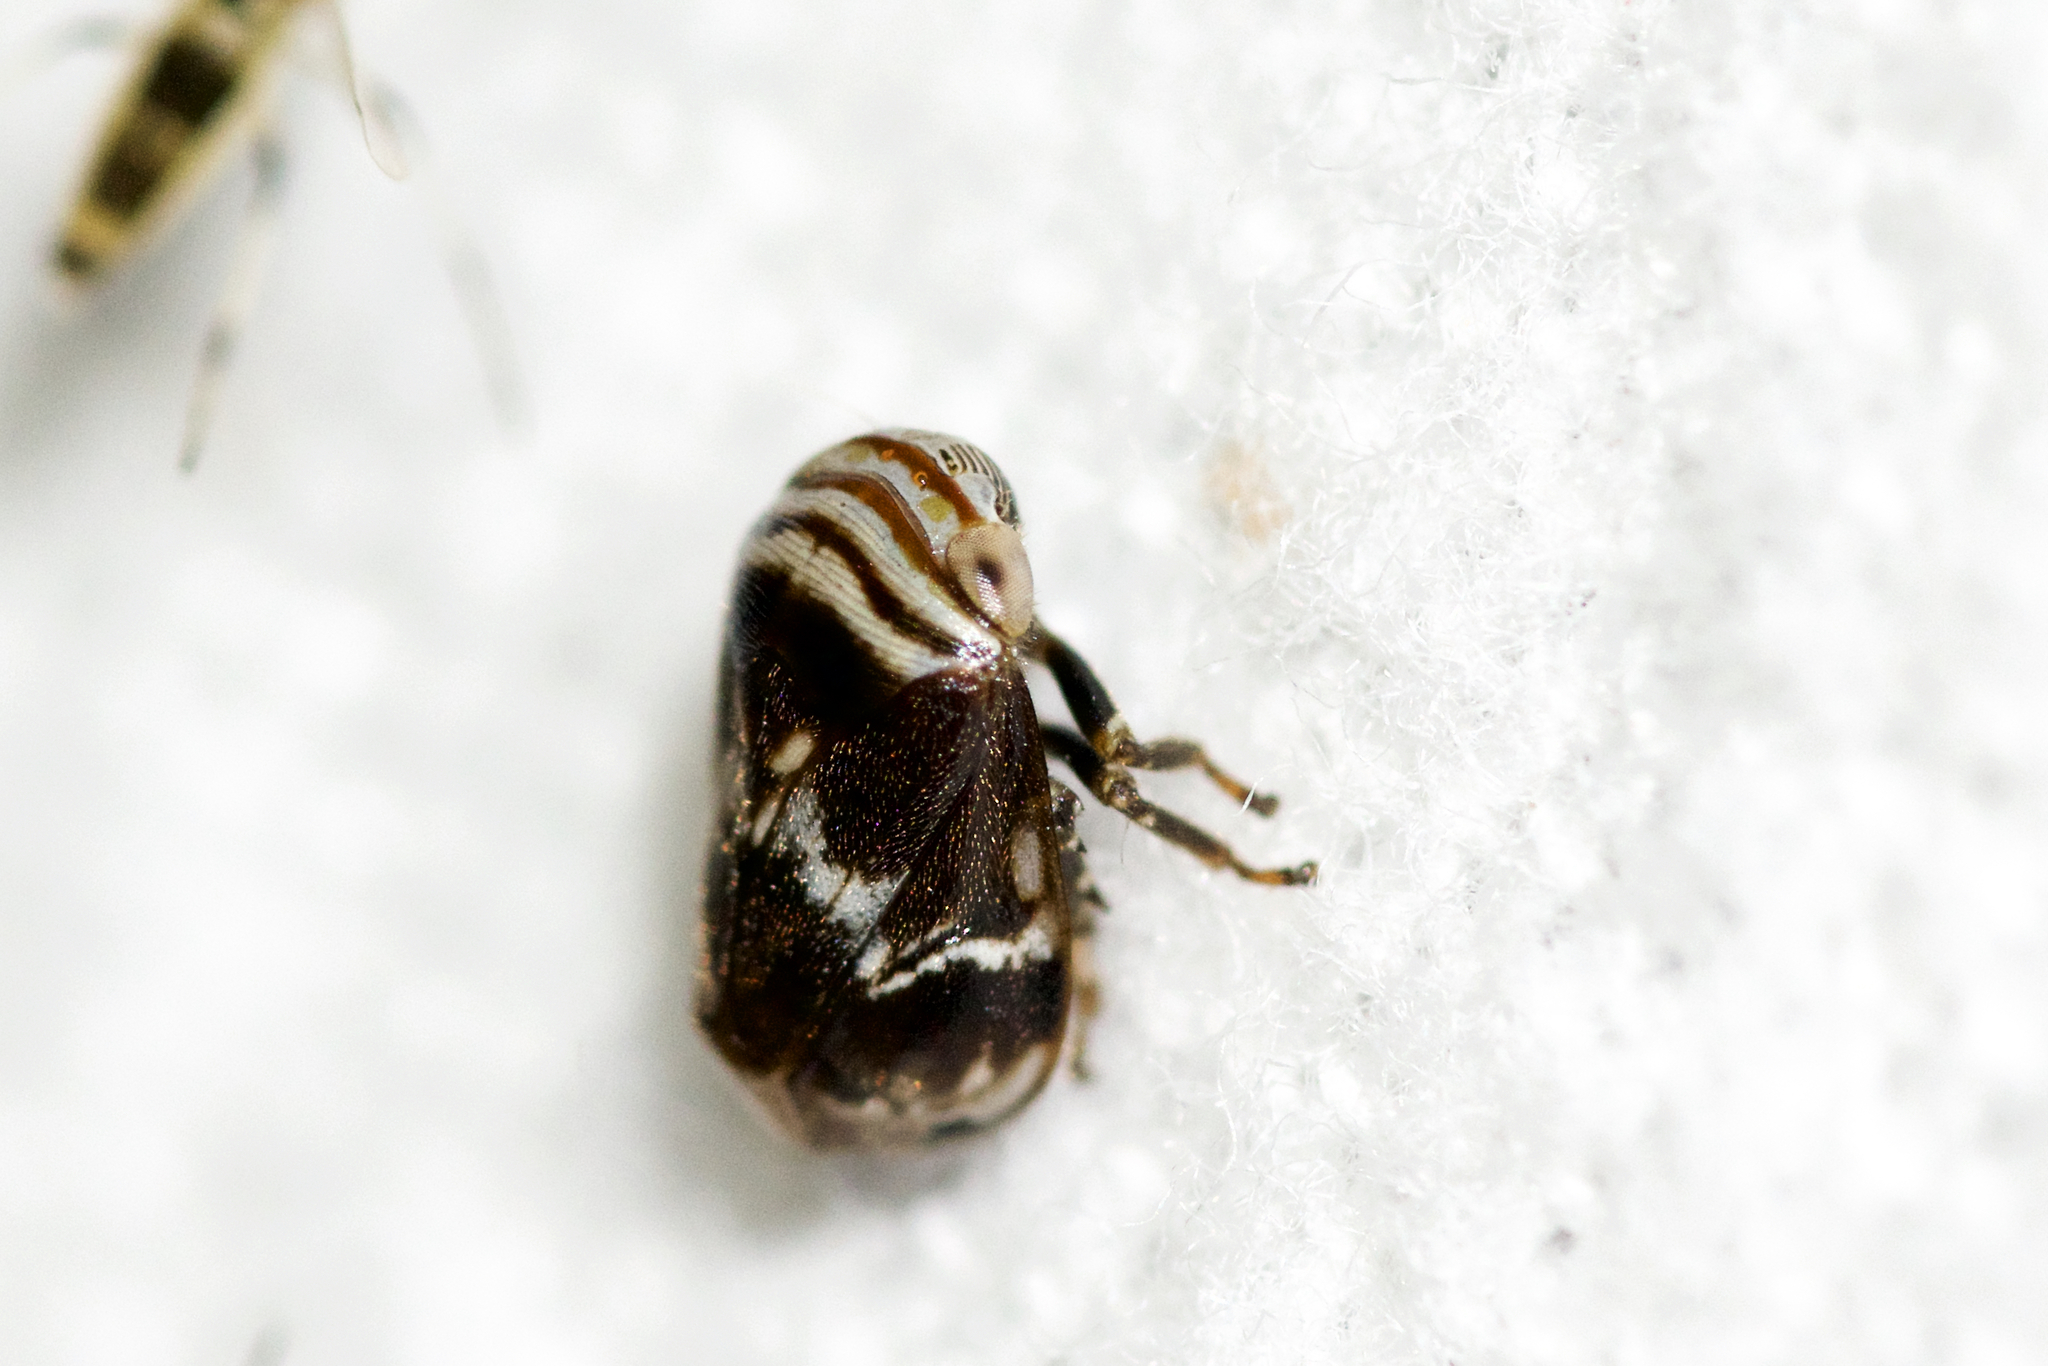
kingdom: Animalia
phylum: Arthropoda
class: Insecta
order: Hemiptera
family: Clastopteridae
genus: Clastoptera
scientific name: Clastoptera obtusa
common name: Alder spittlebug
